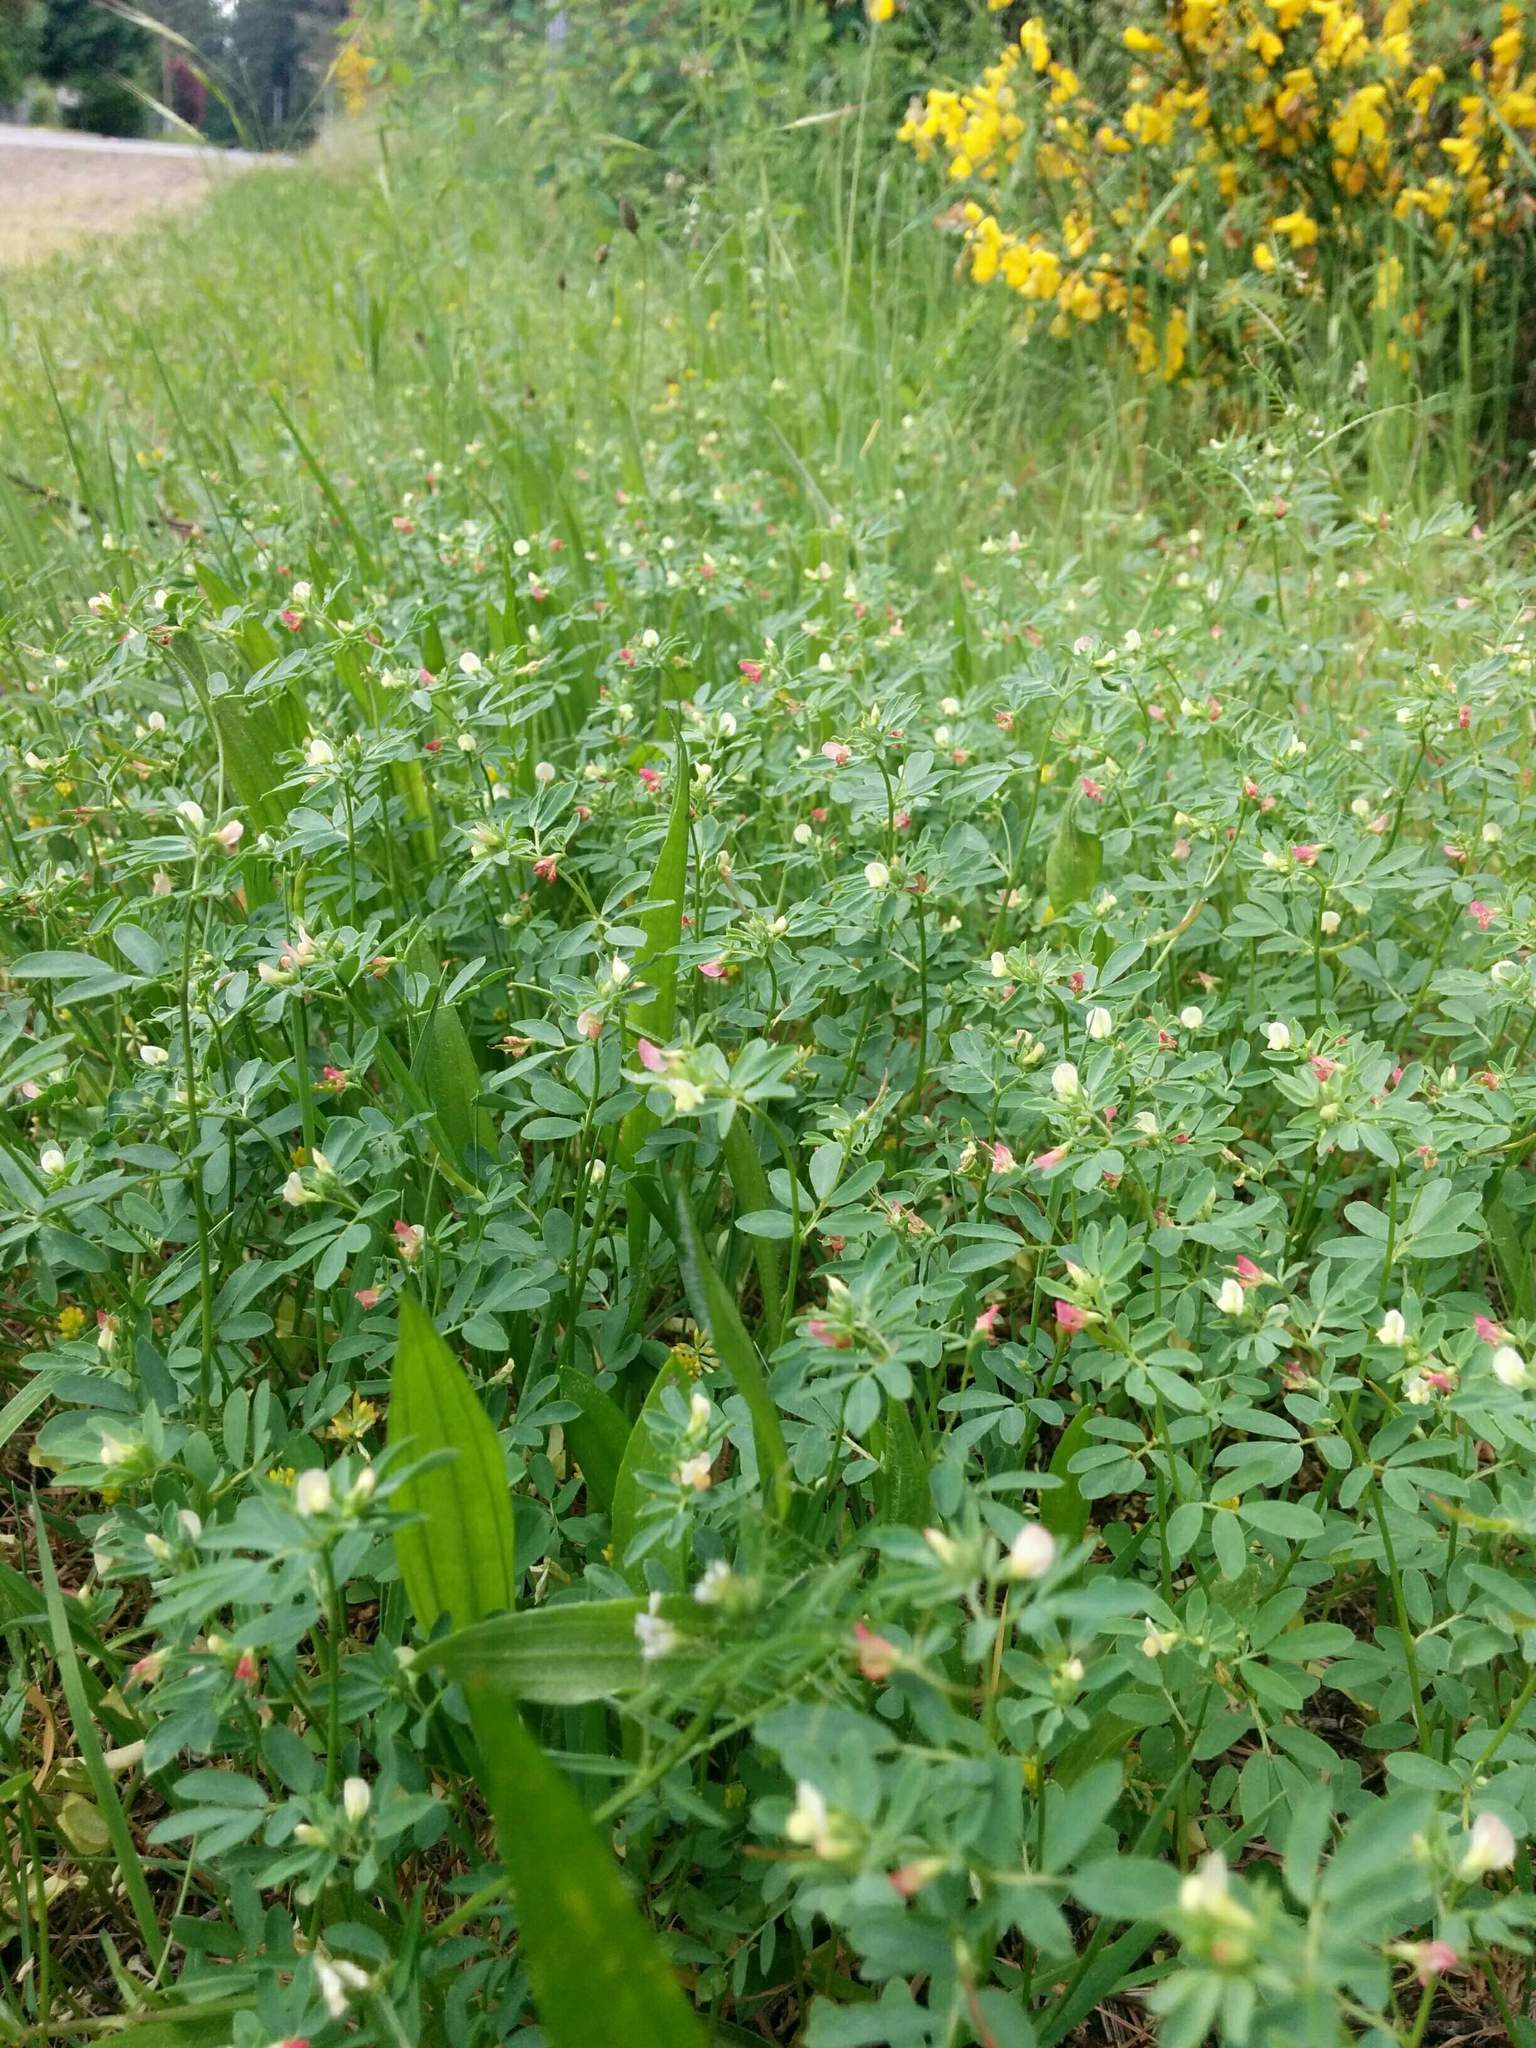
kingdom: Plantae
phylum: Tracheophyta
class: Magnoliopsida
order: Fabales
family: Fabaceae
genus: Acmispon
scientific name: Acmispon parviflorus
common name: Desert deer-vetch
